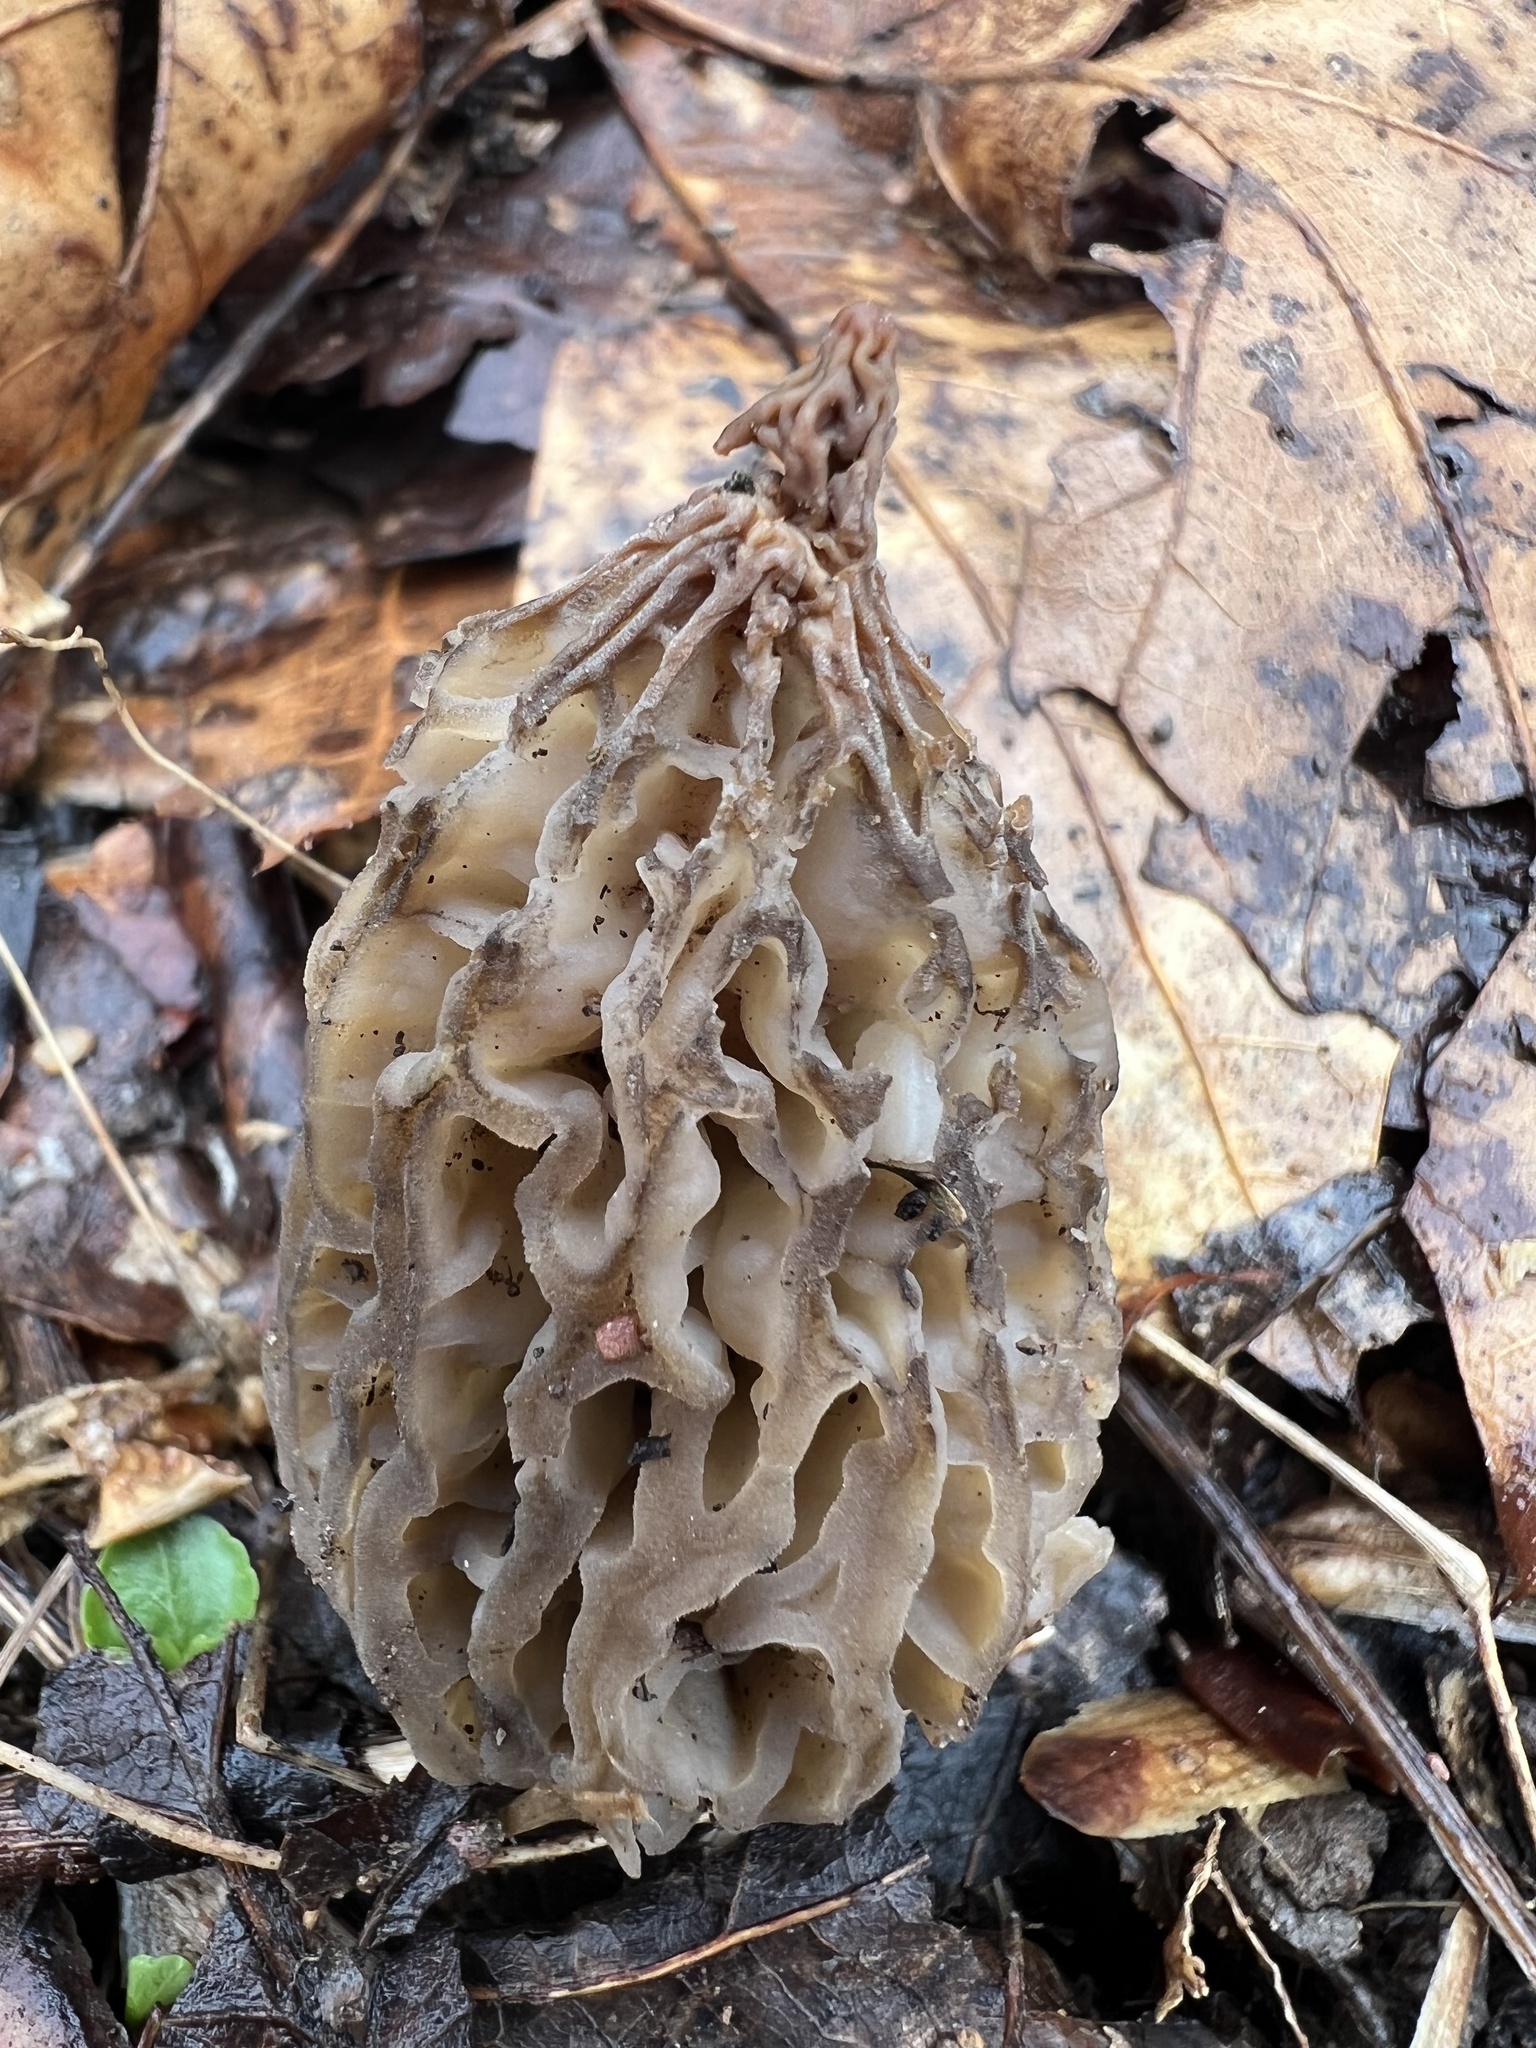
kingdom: Fungi
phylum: Ascomycota
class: Pezizomycetes
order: Pezizales
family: Morchellaceae
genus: Morchella
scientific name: Morchella angusticeps
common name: Black morel
